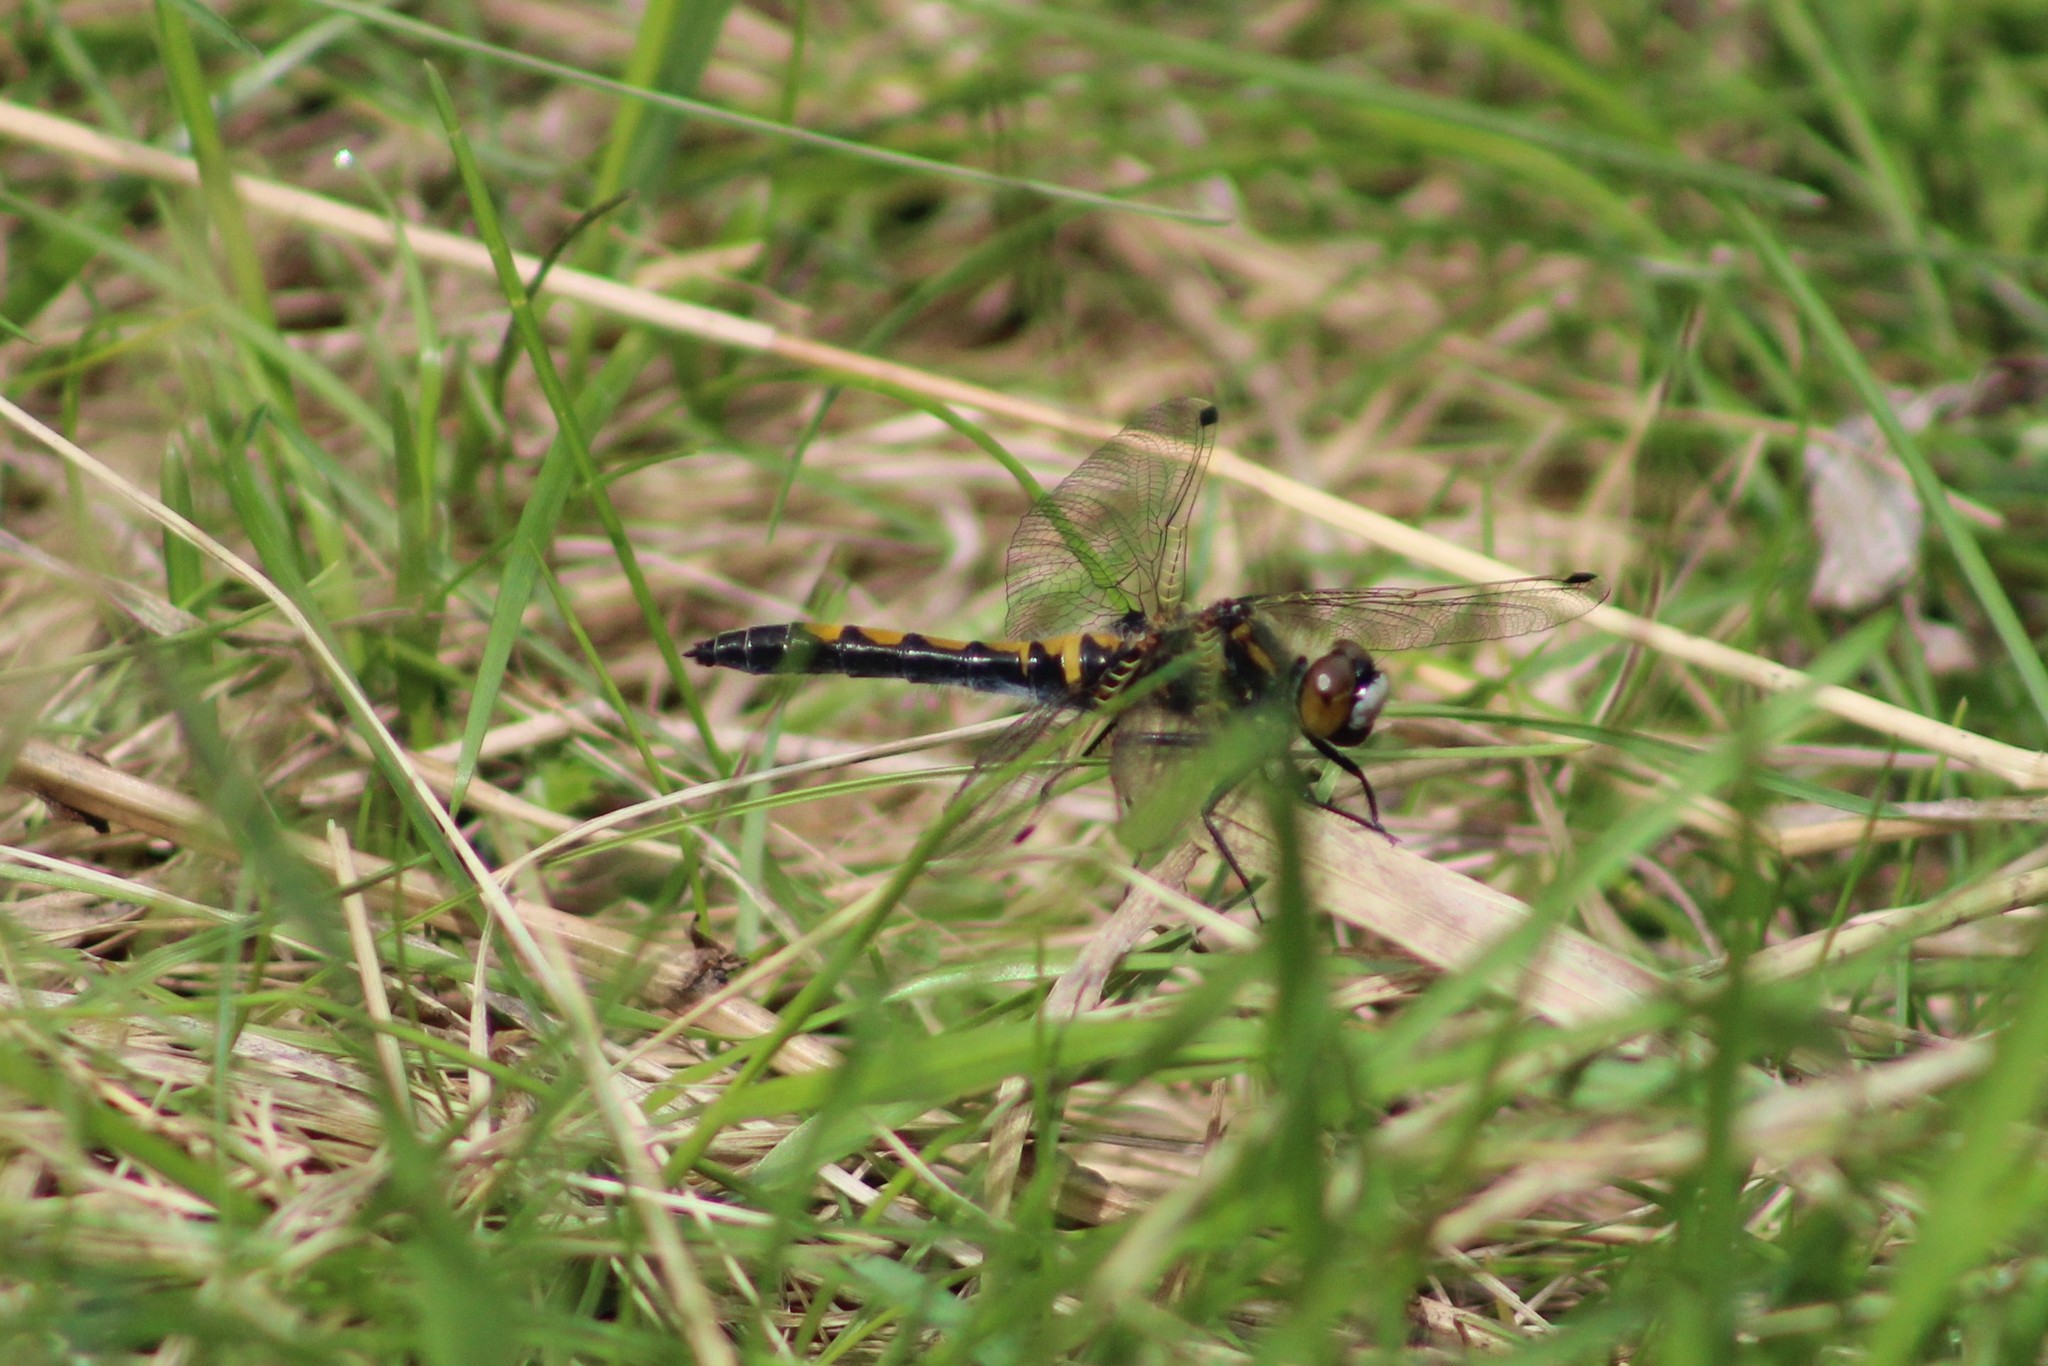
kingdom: Animalia
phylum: Arthropoda
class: Insecta
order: Odonata
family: Libellulidae
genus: Leucorrhinia
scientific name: Leucorrhinia rubicunda
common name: Ruby whiteface
